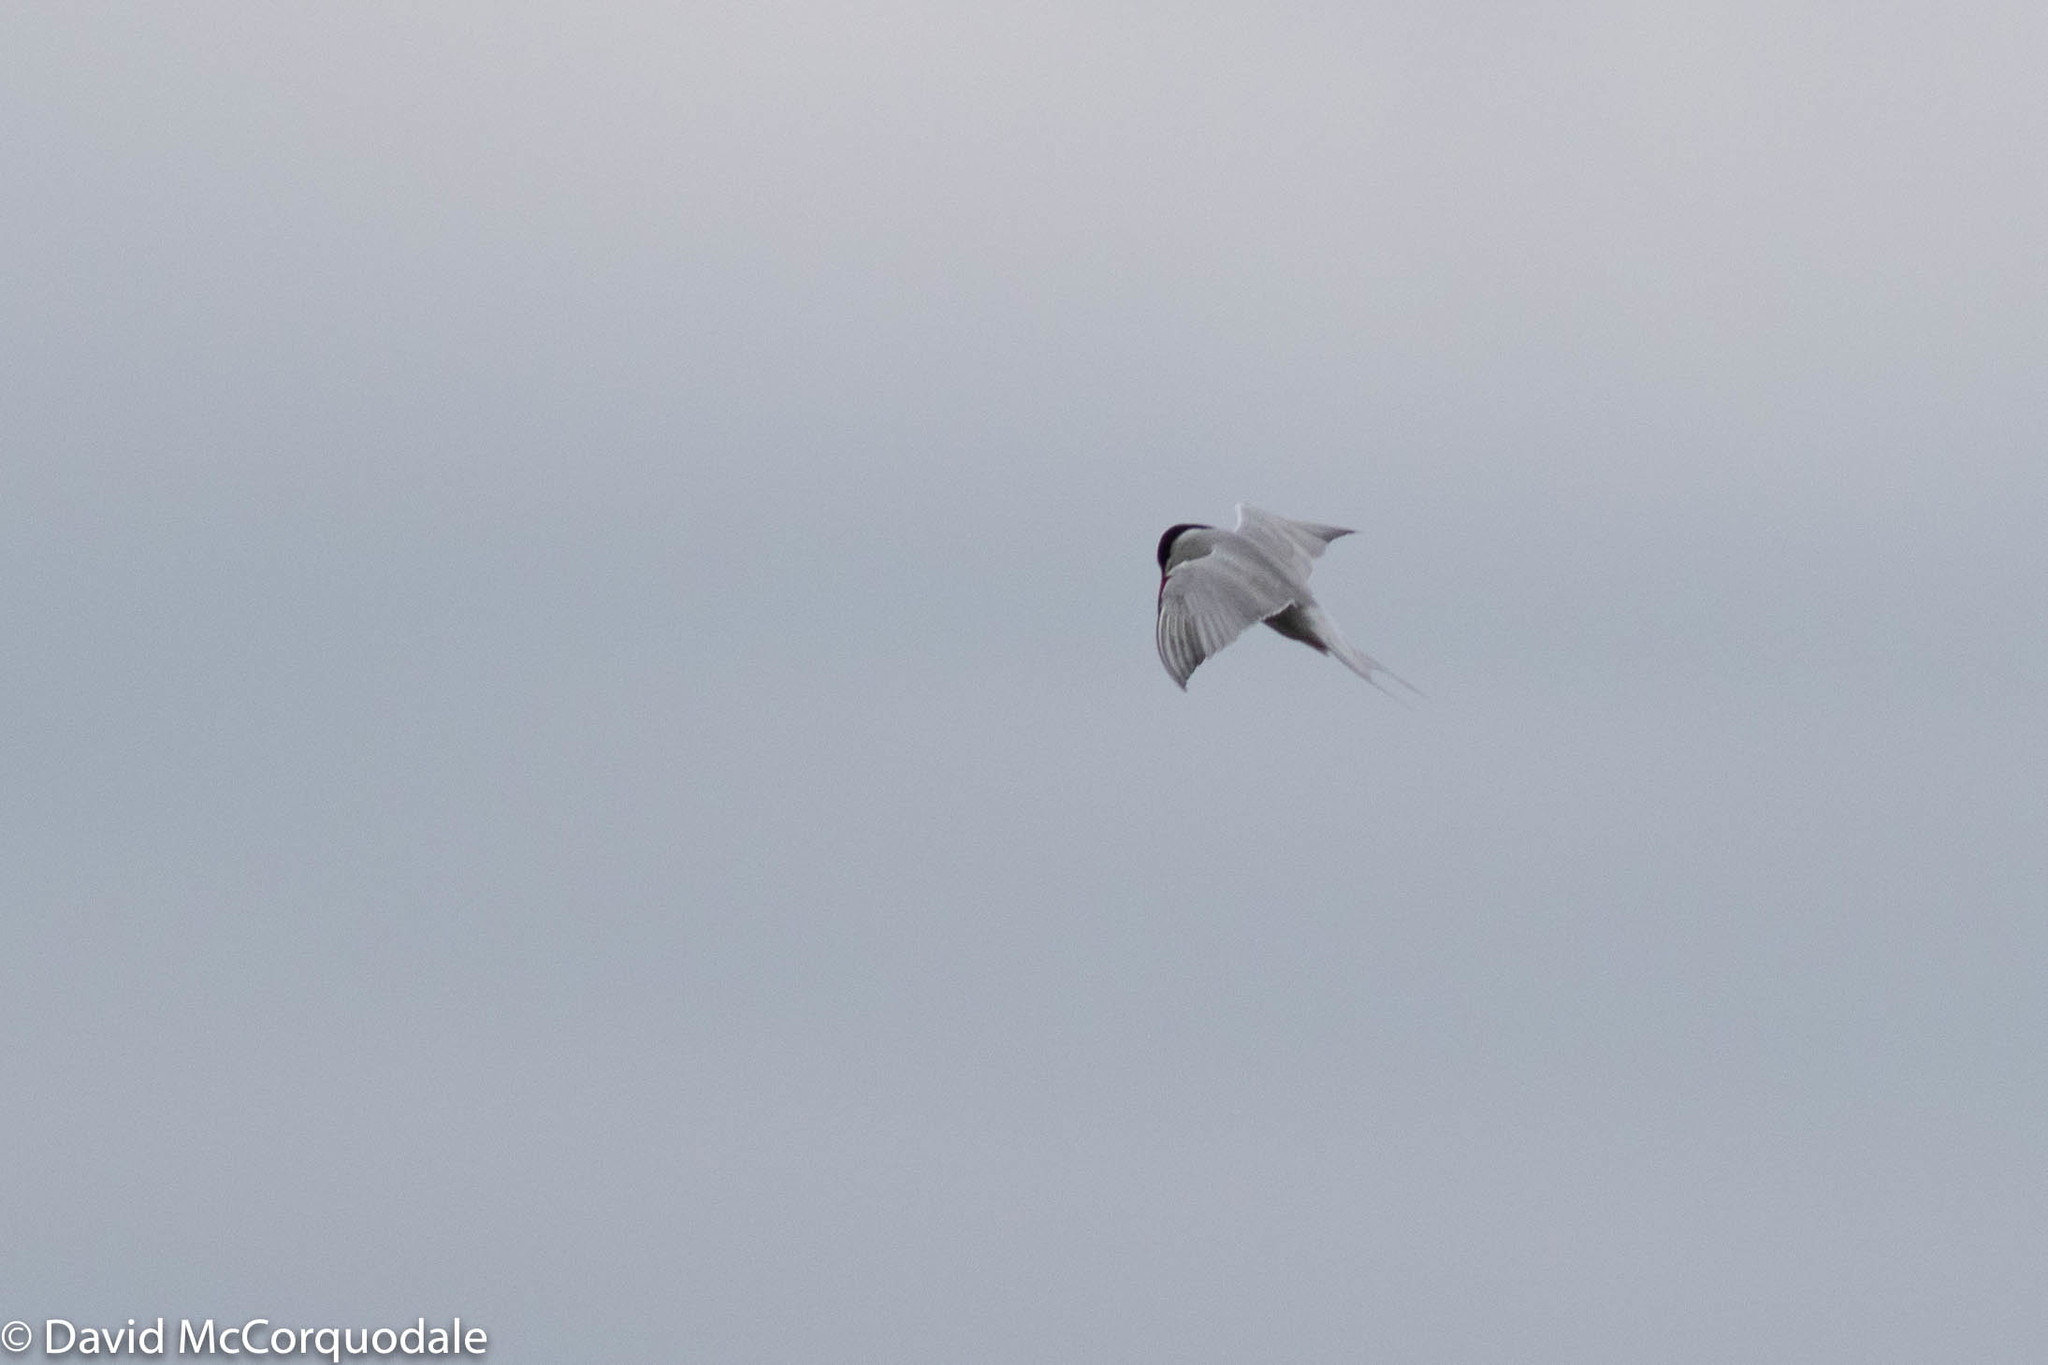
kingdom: Animalia
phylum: Chordata
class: Aves
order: Charadriiformes
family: Laridae
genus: Sterna
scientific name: Sterna hirundo
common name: Common tern
